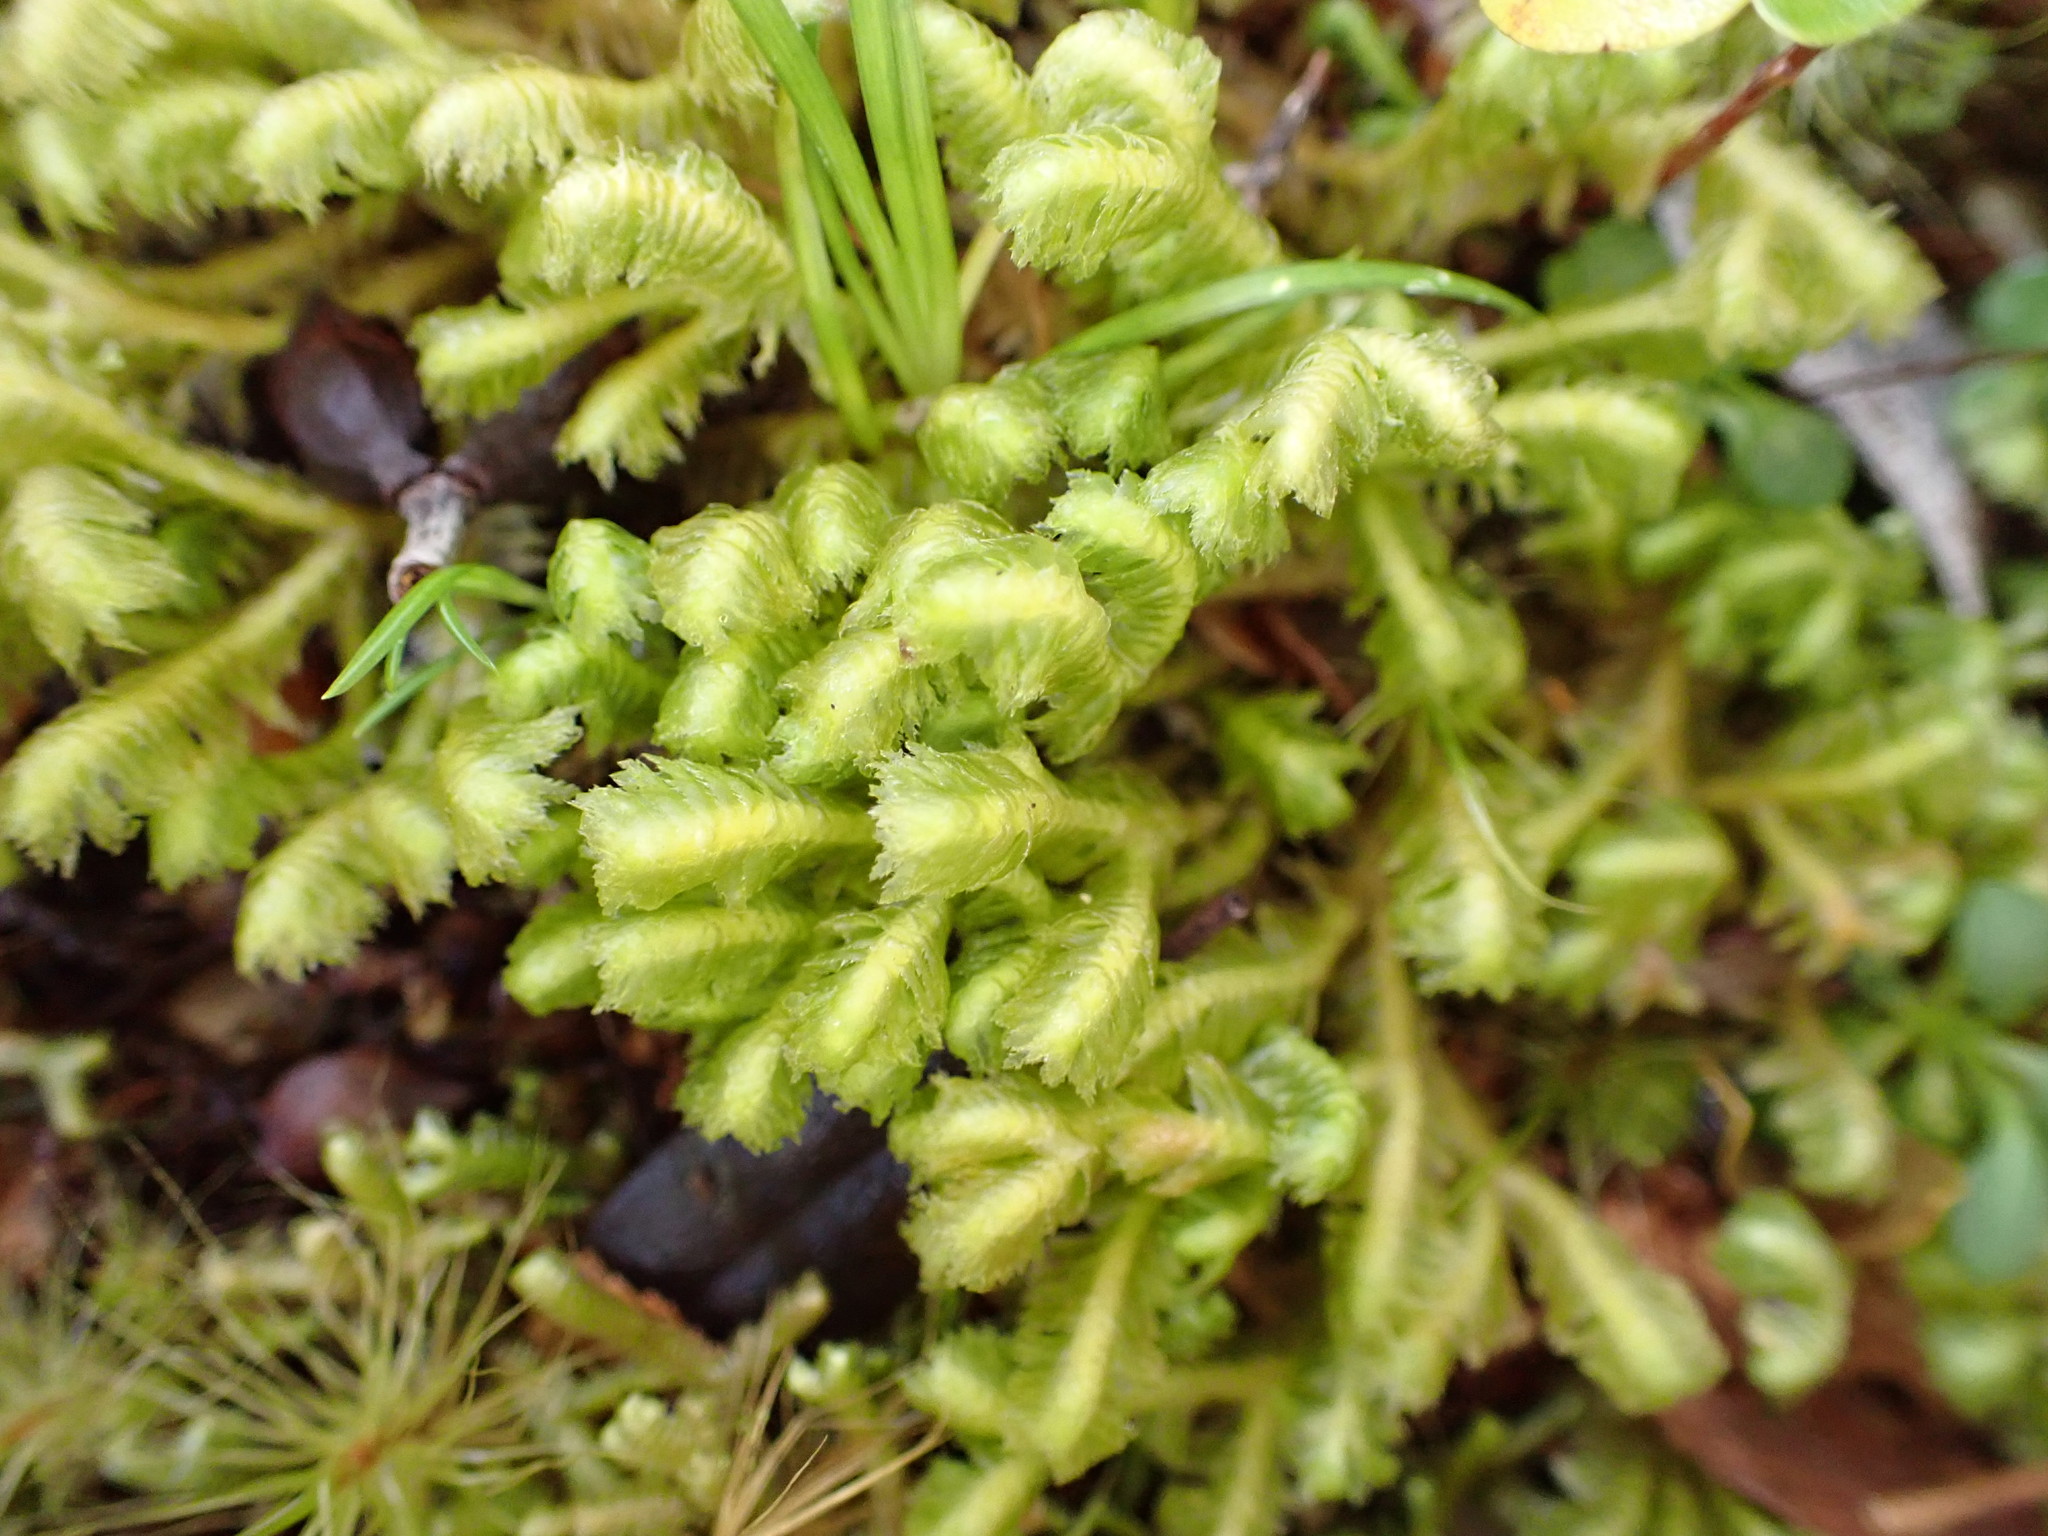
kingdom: Plantae
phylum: Marchantiophyta
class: Jungermanniopsida
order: Jungermanniales
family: Schistochilaceae
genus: Schistochila
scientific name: Schistochila pinnatifolia
